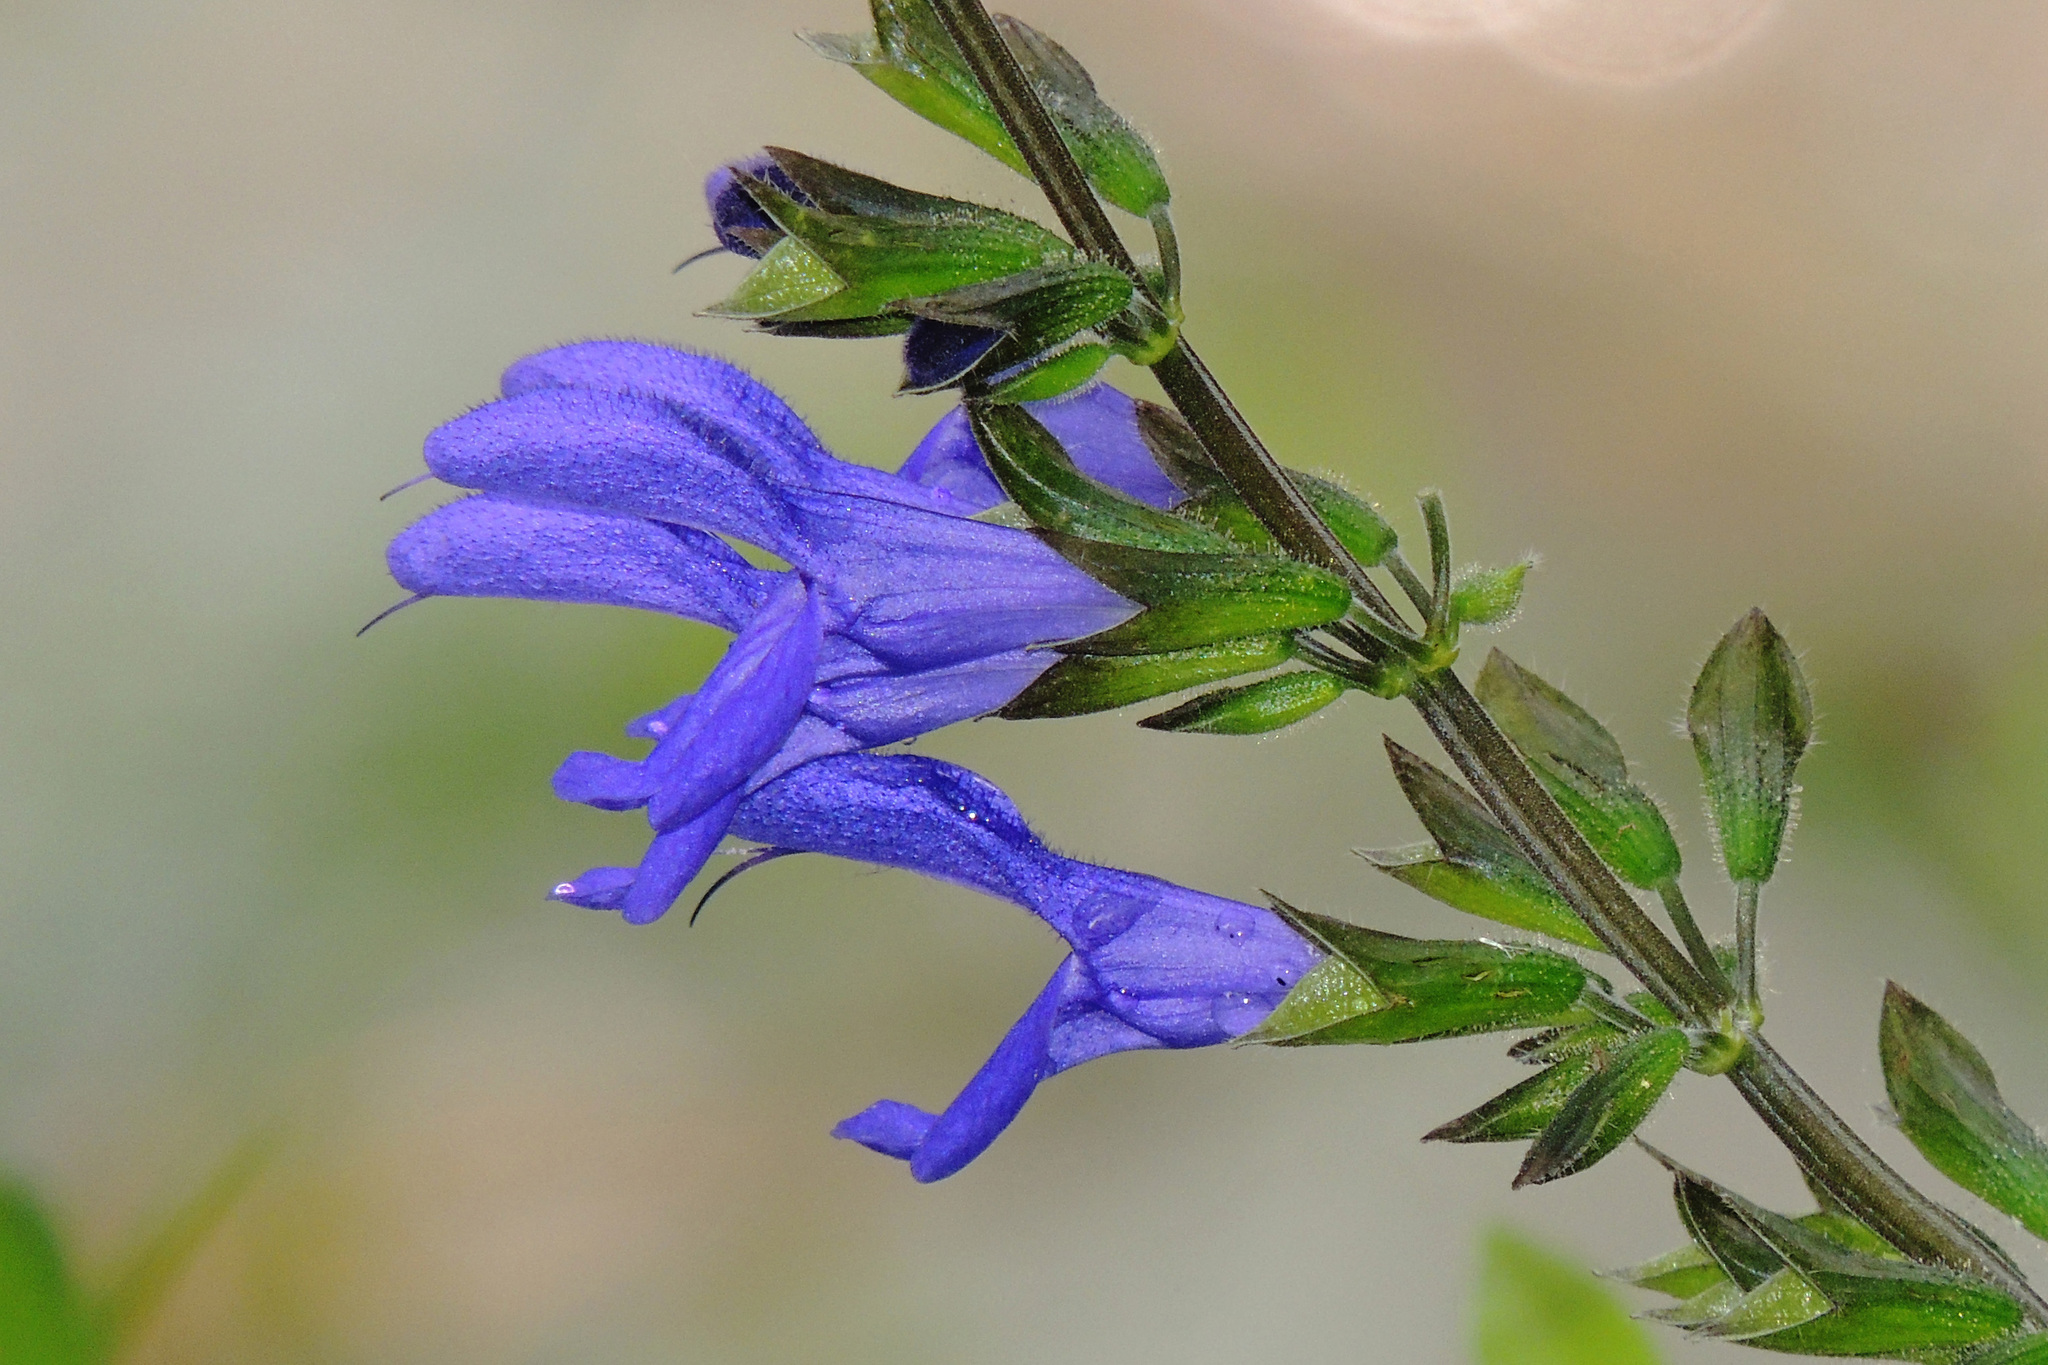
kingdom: Plantae
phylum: Tracheophyta
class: Magnoliopsida
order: Lamiales
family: Lamiaceae
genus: Salvia
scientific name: Salvia guaranitica
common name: Anise-scented sage
